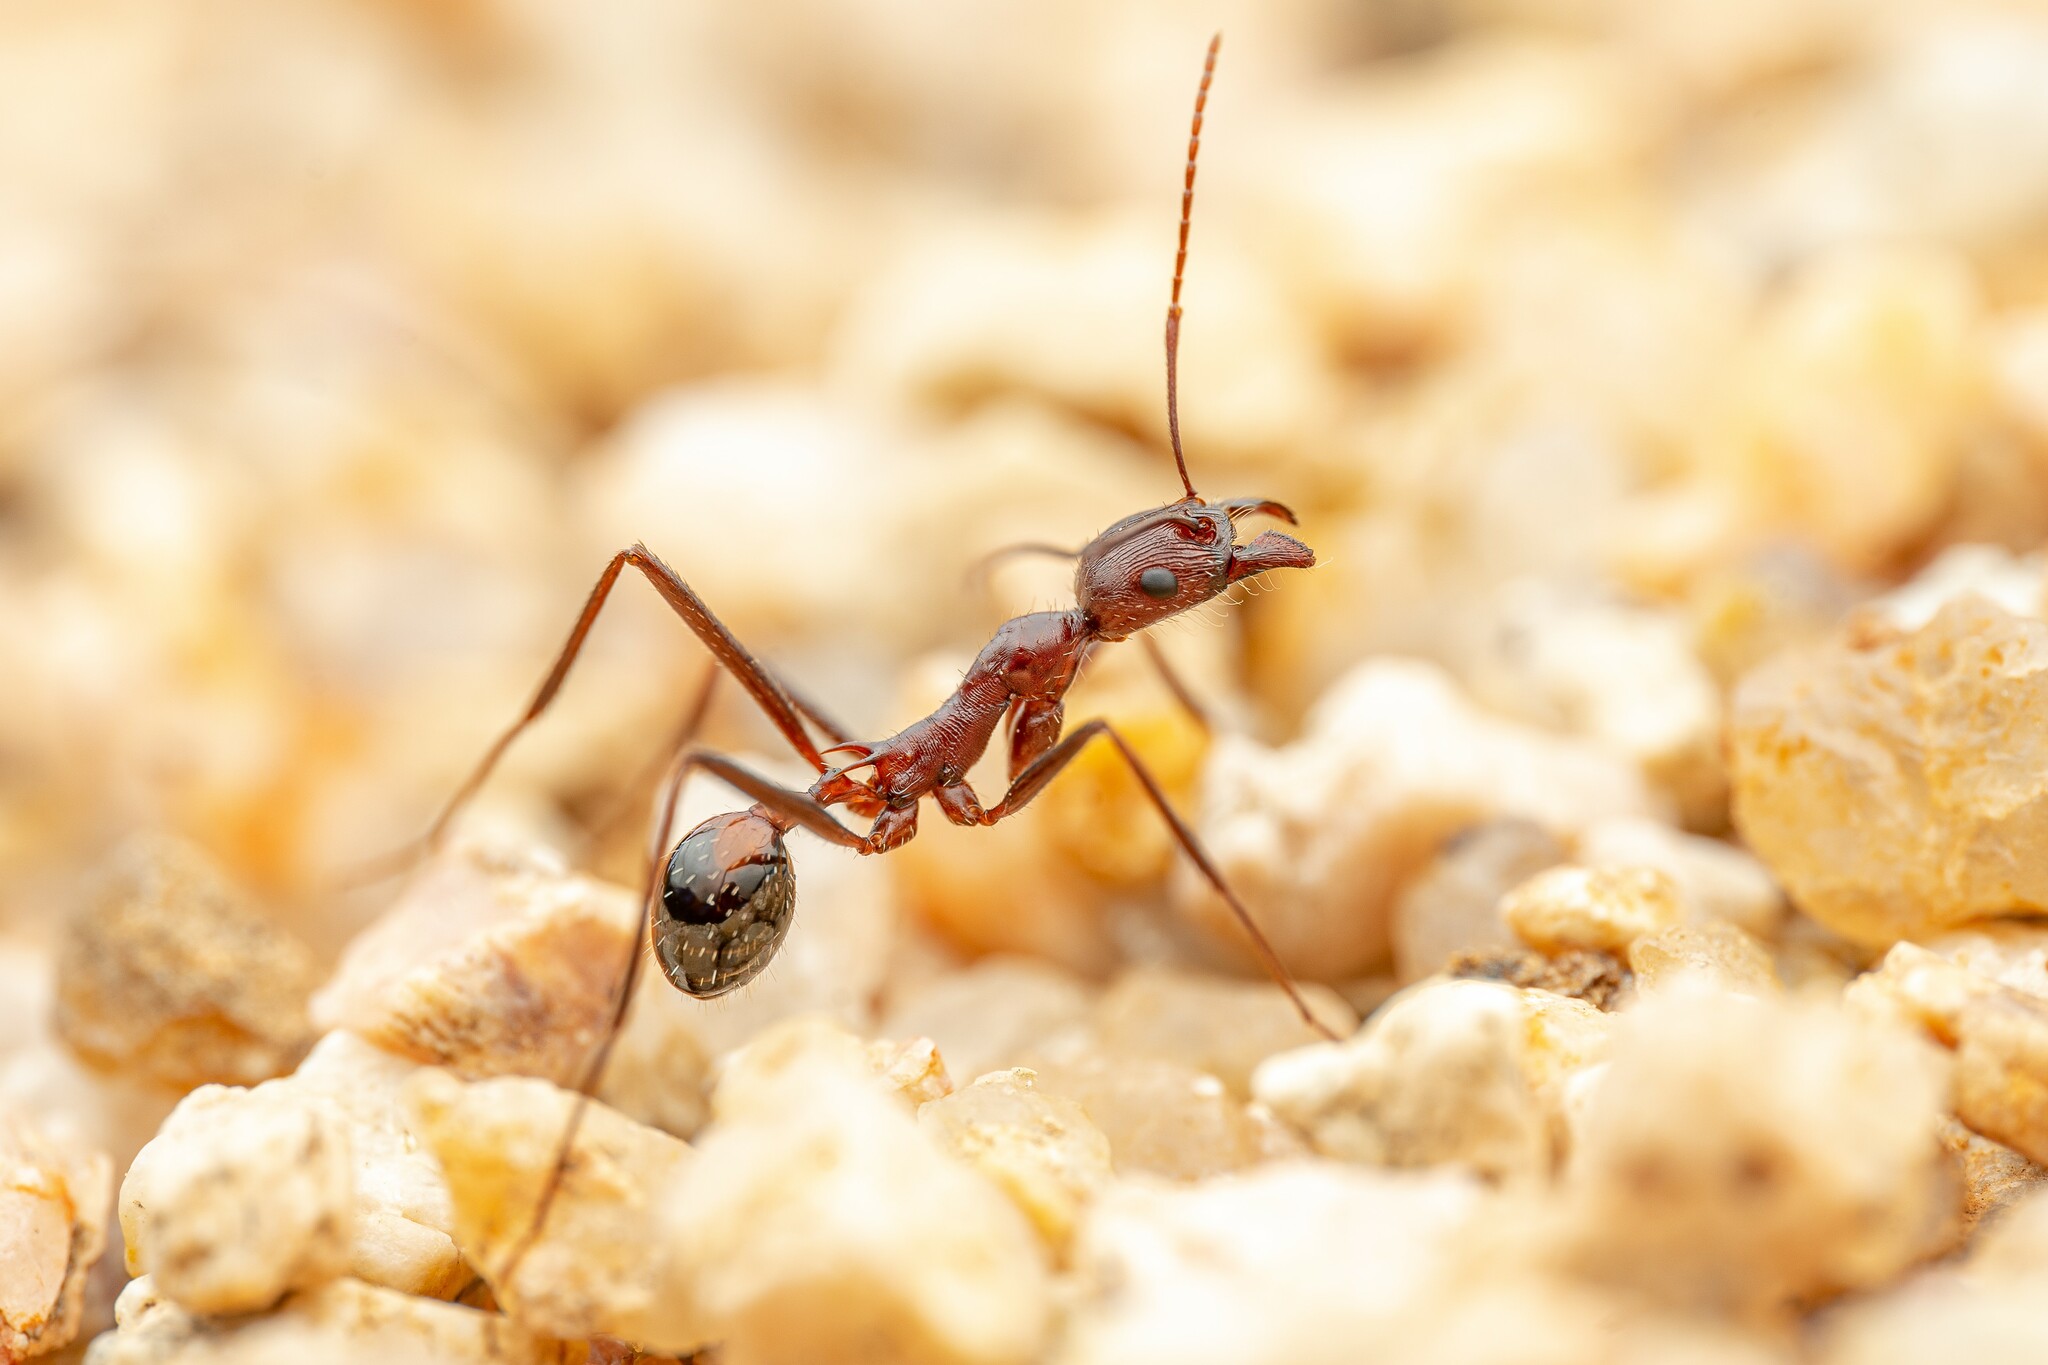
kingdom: Animalia
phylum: Arthropoda
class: Insecta
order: Hymenoptera
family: Formicidae
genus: Novomessor
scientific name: Novomessor cockerelli
